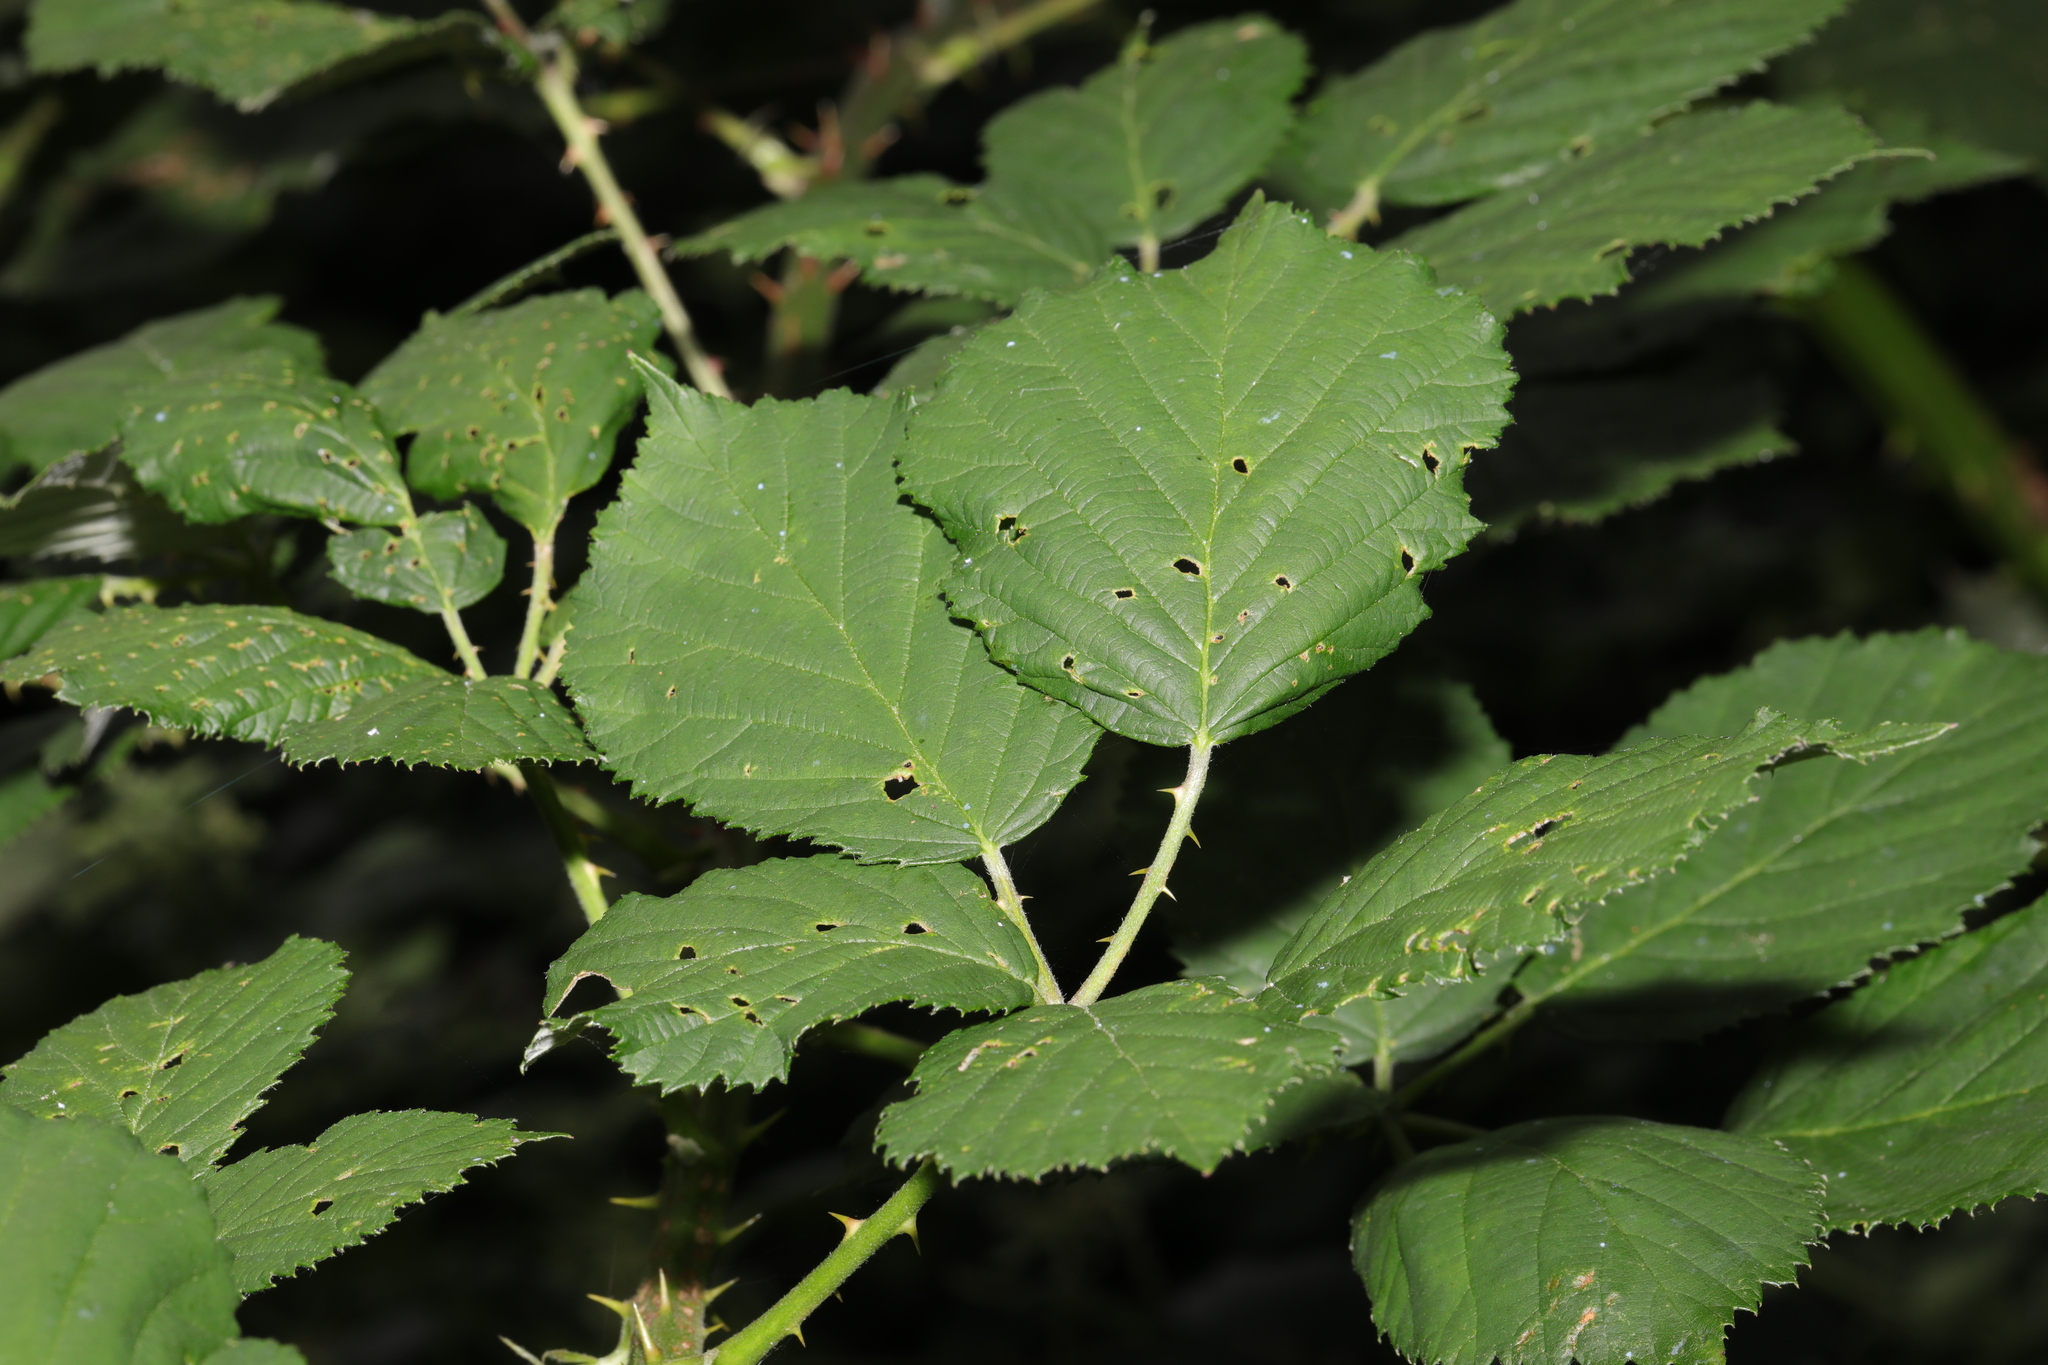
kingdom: Plantae
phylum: Tracheophyta
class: Magnoliopsida
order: Rosales
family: Rosaceae
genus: Rubus
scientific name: Rubus armeniacus
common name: Himalayan blackberry
